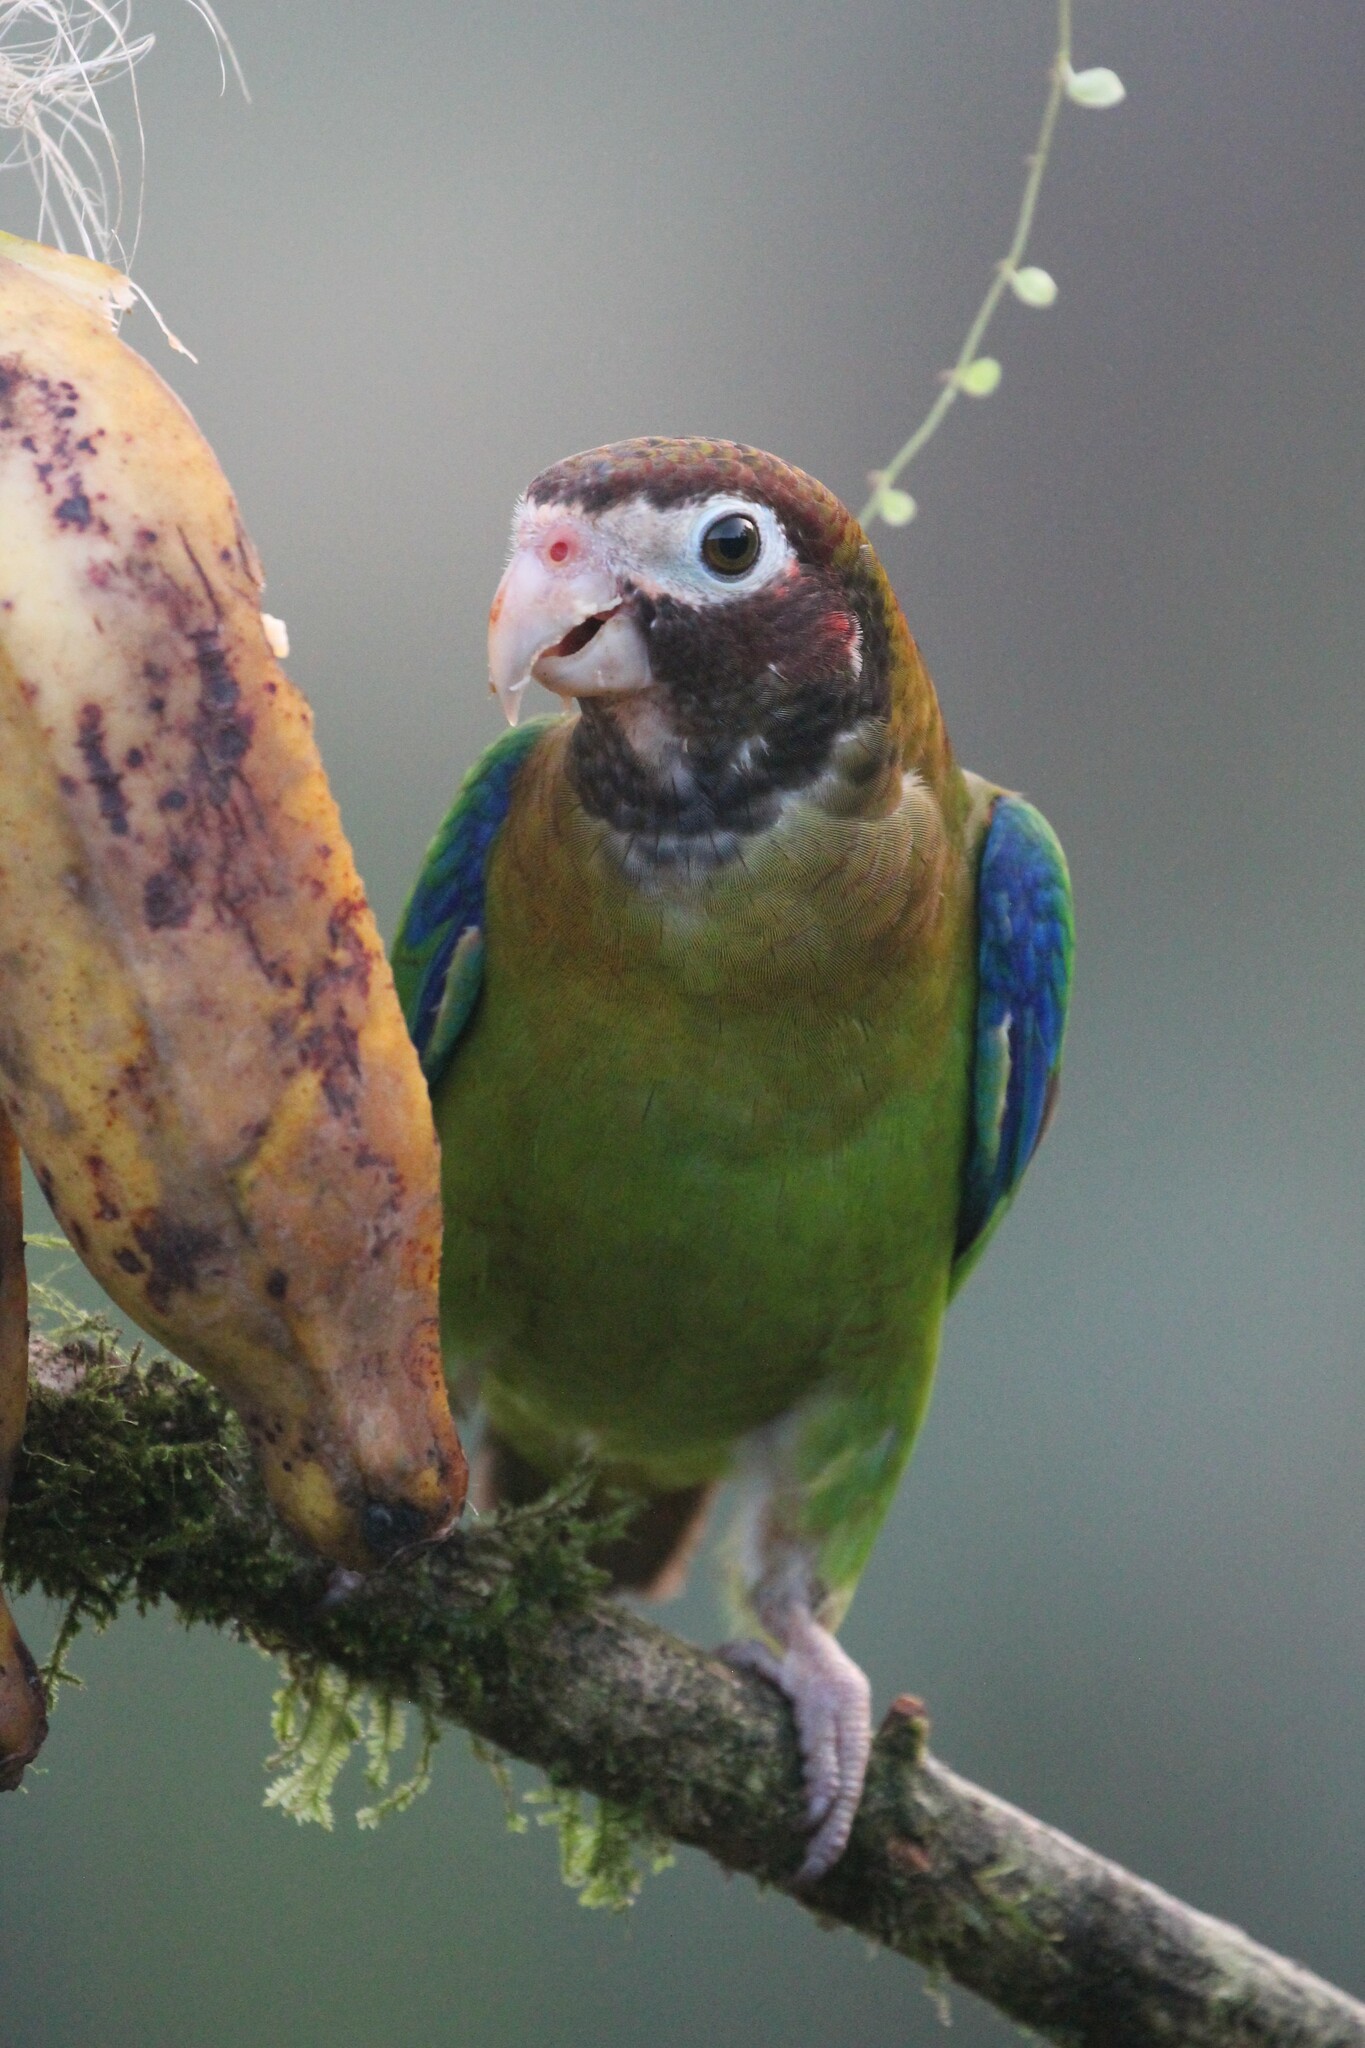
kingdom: Animalia
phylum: Chordata
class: Aves
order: Psittaciformes
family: Psittacidae
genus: Pionopsitta
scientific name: Pionopsitta haematotis
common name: Brown-hooded parrot
